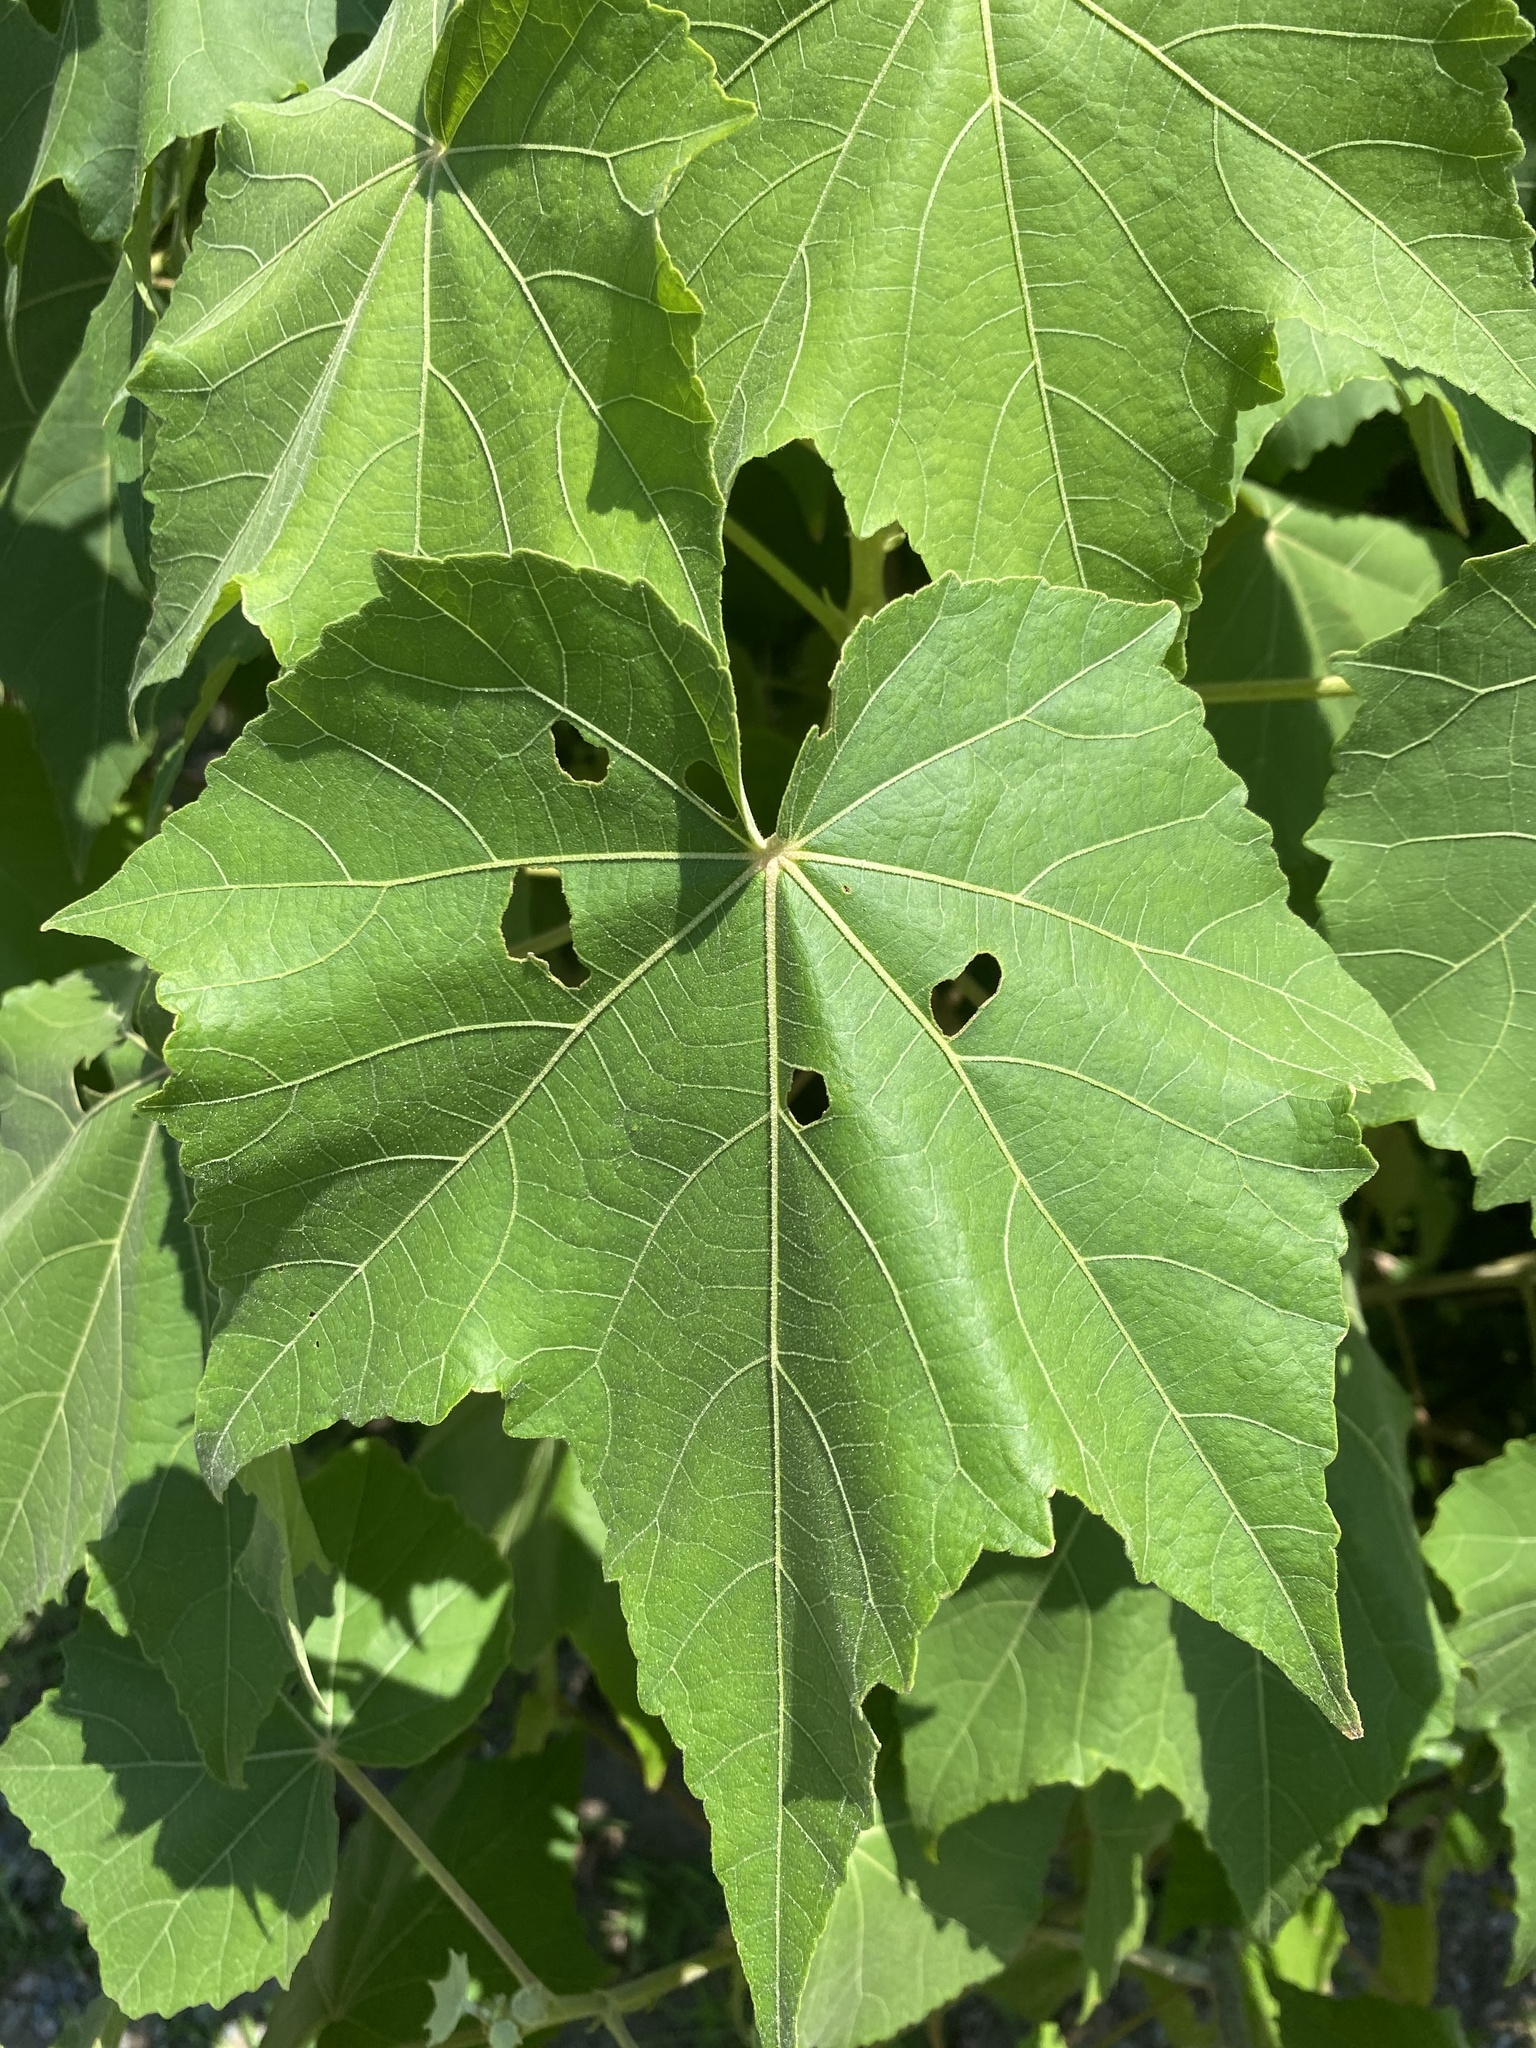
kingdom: Plantae
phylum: Tracheophyta
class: Magnoliopsida
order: Malvales
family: Malvaceae
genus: Hibiscus
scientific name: Hibiscus mutabilis
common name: Dixie rosemallow
